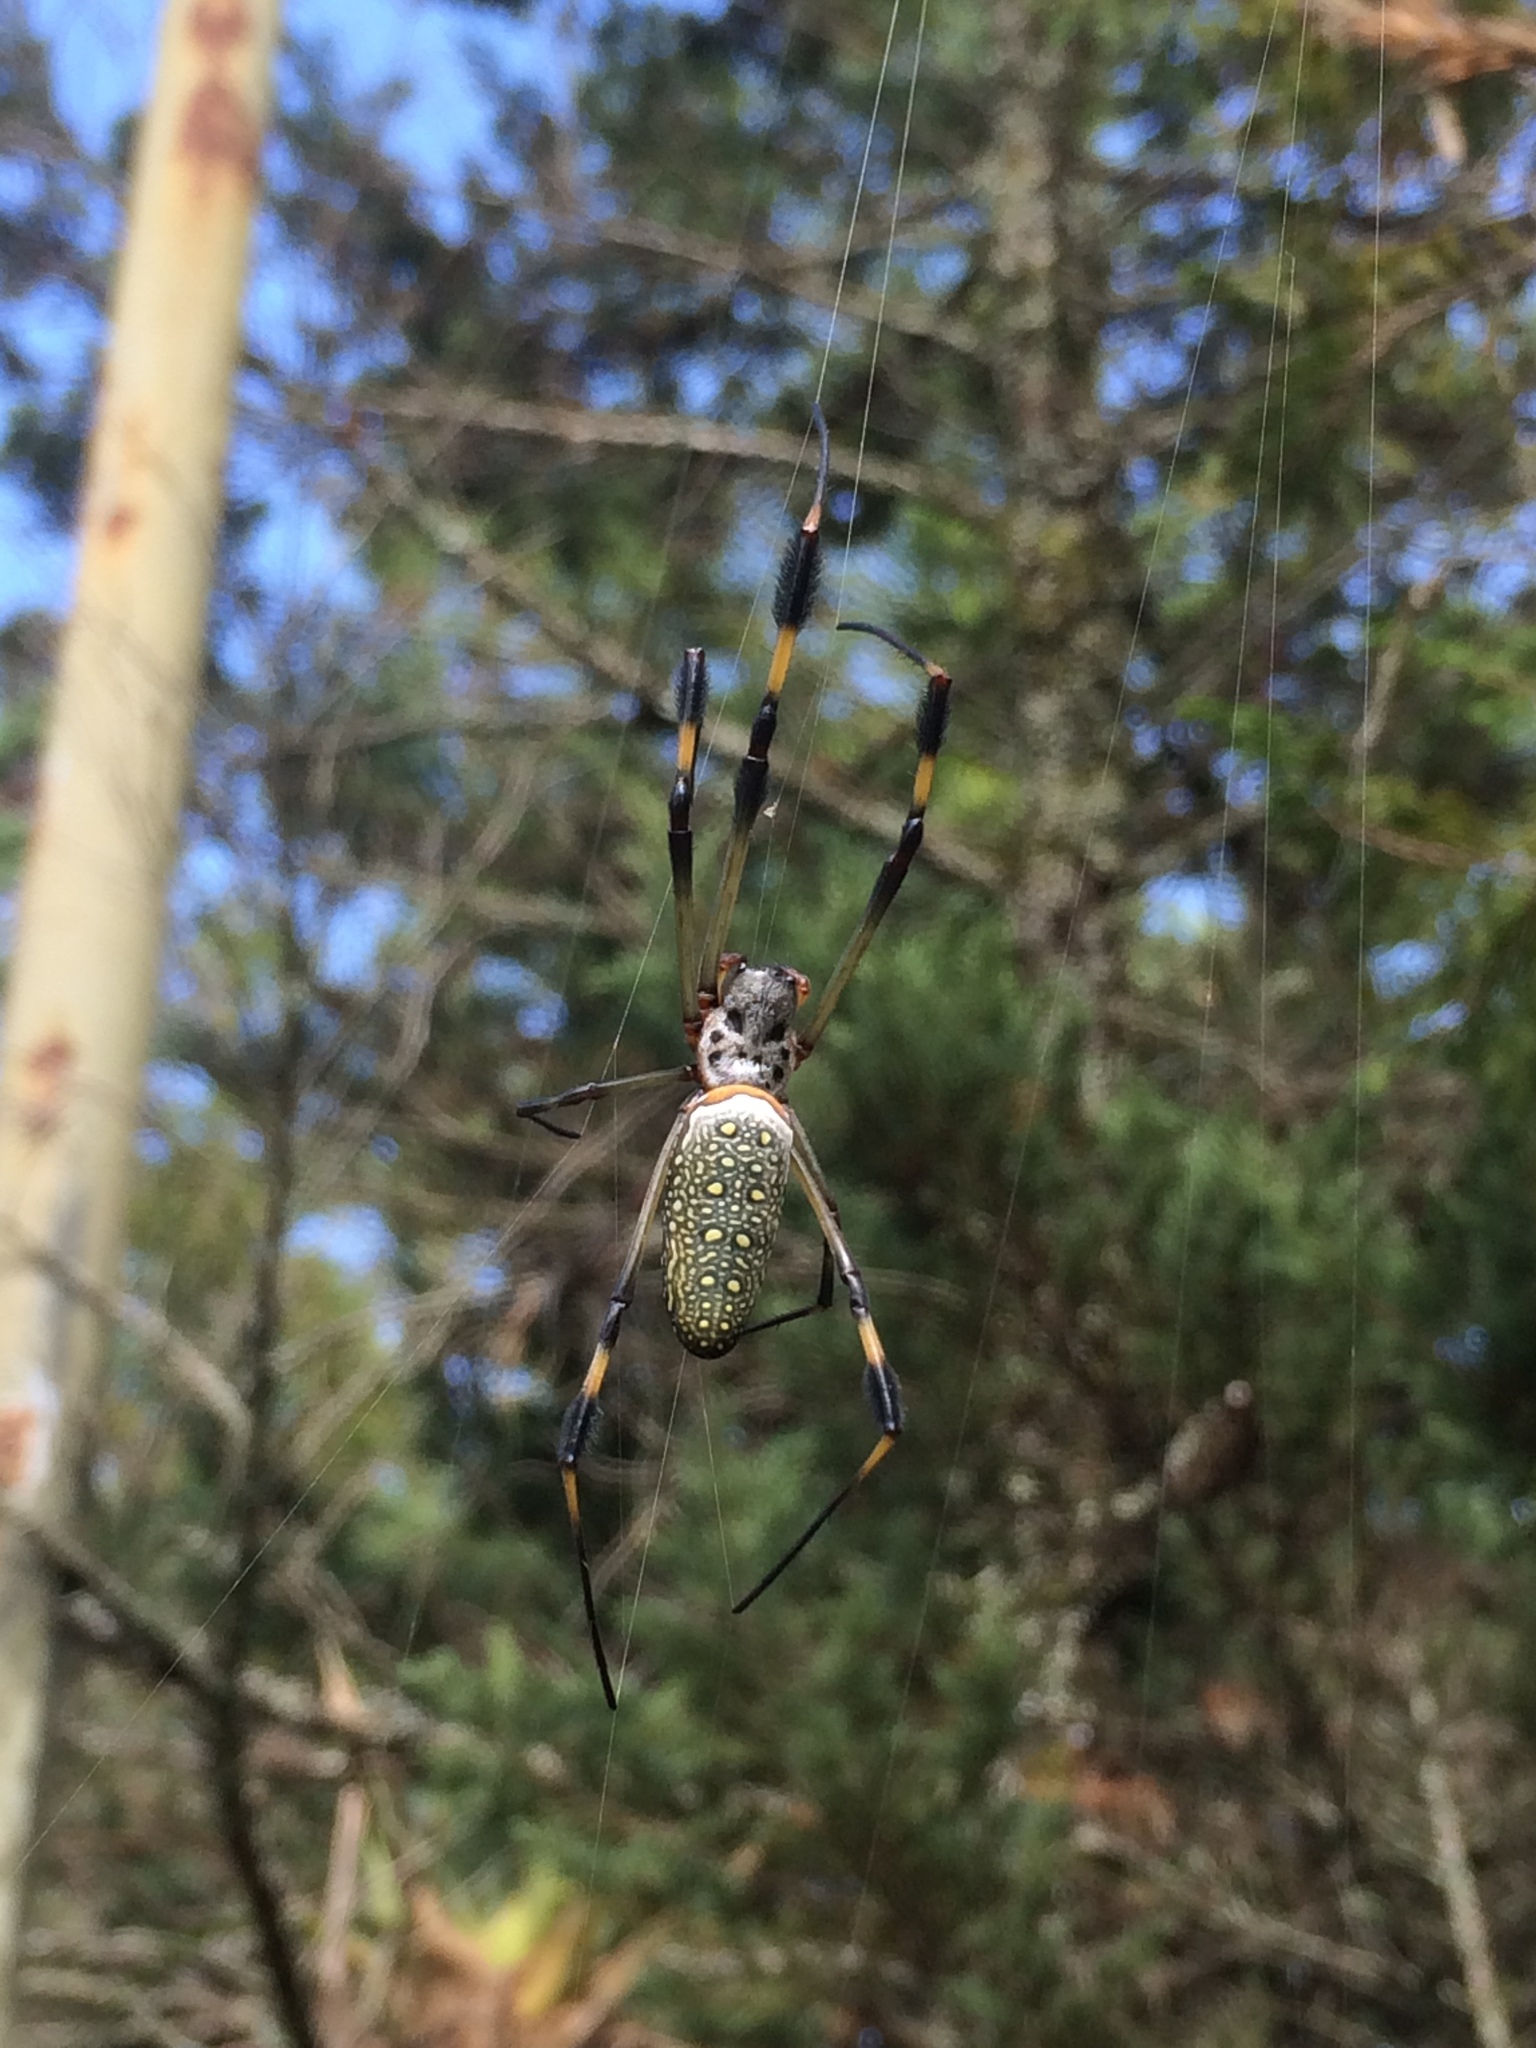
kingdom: Animalia
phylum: Arthropoda
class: Arachnida
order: Araneae
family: Araneidae
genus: Trichonephila
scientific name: Trichonephila clavipes
